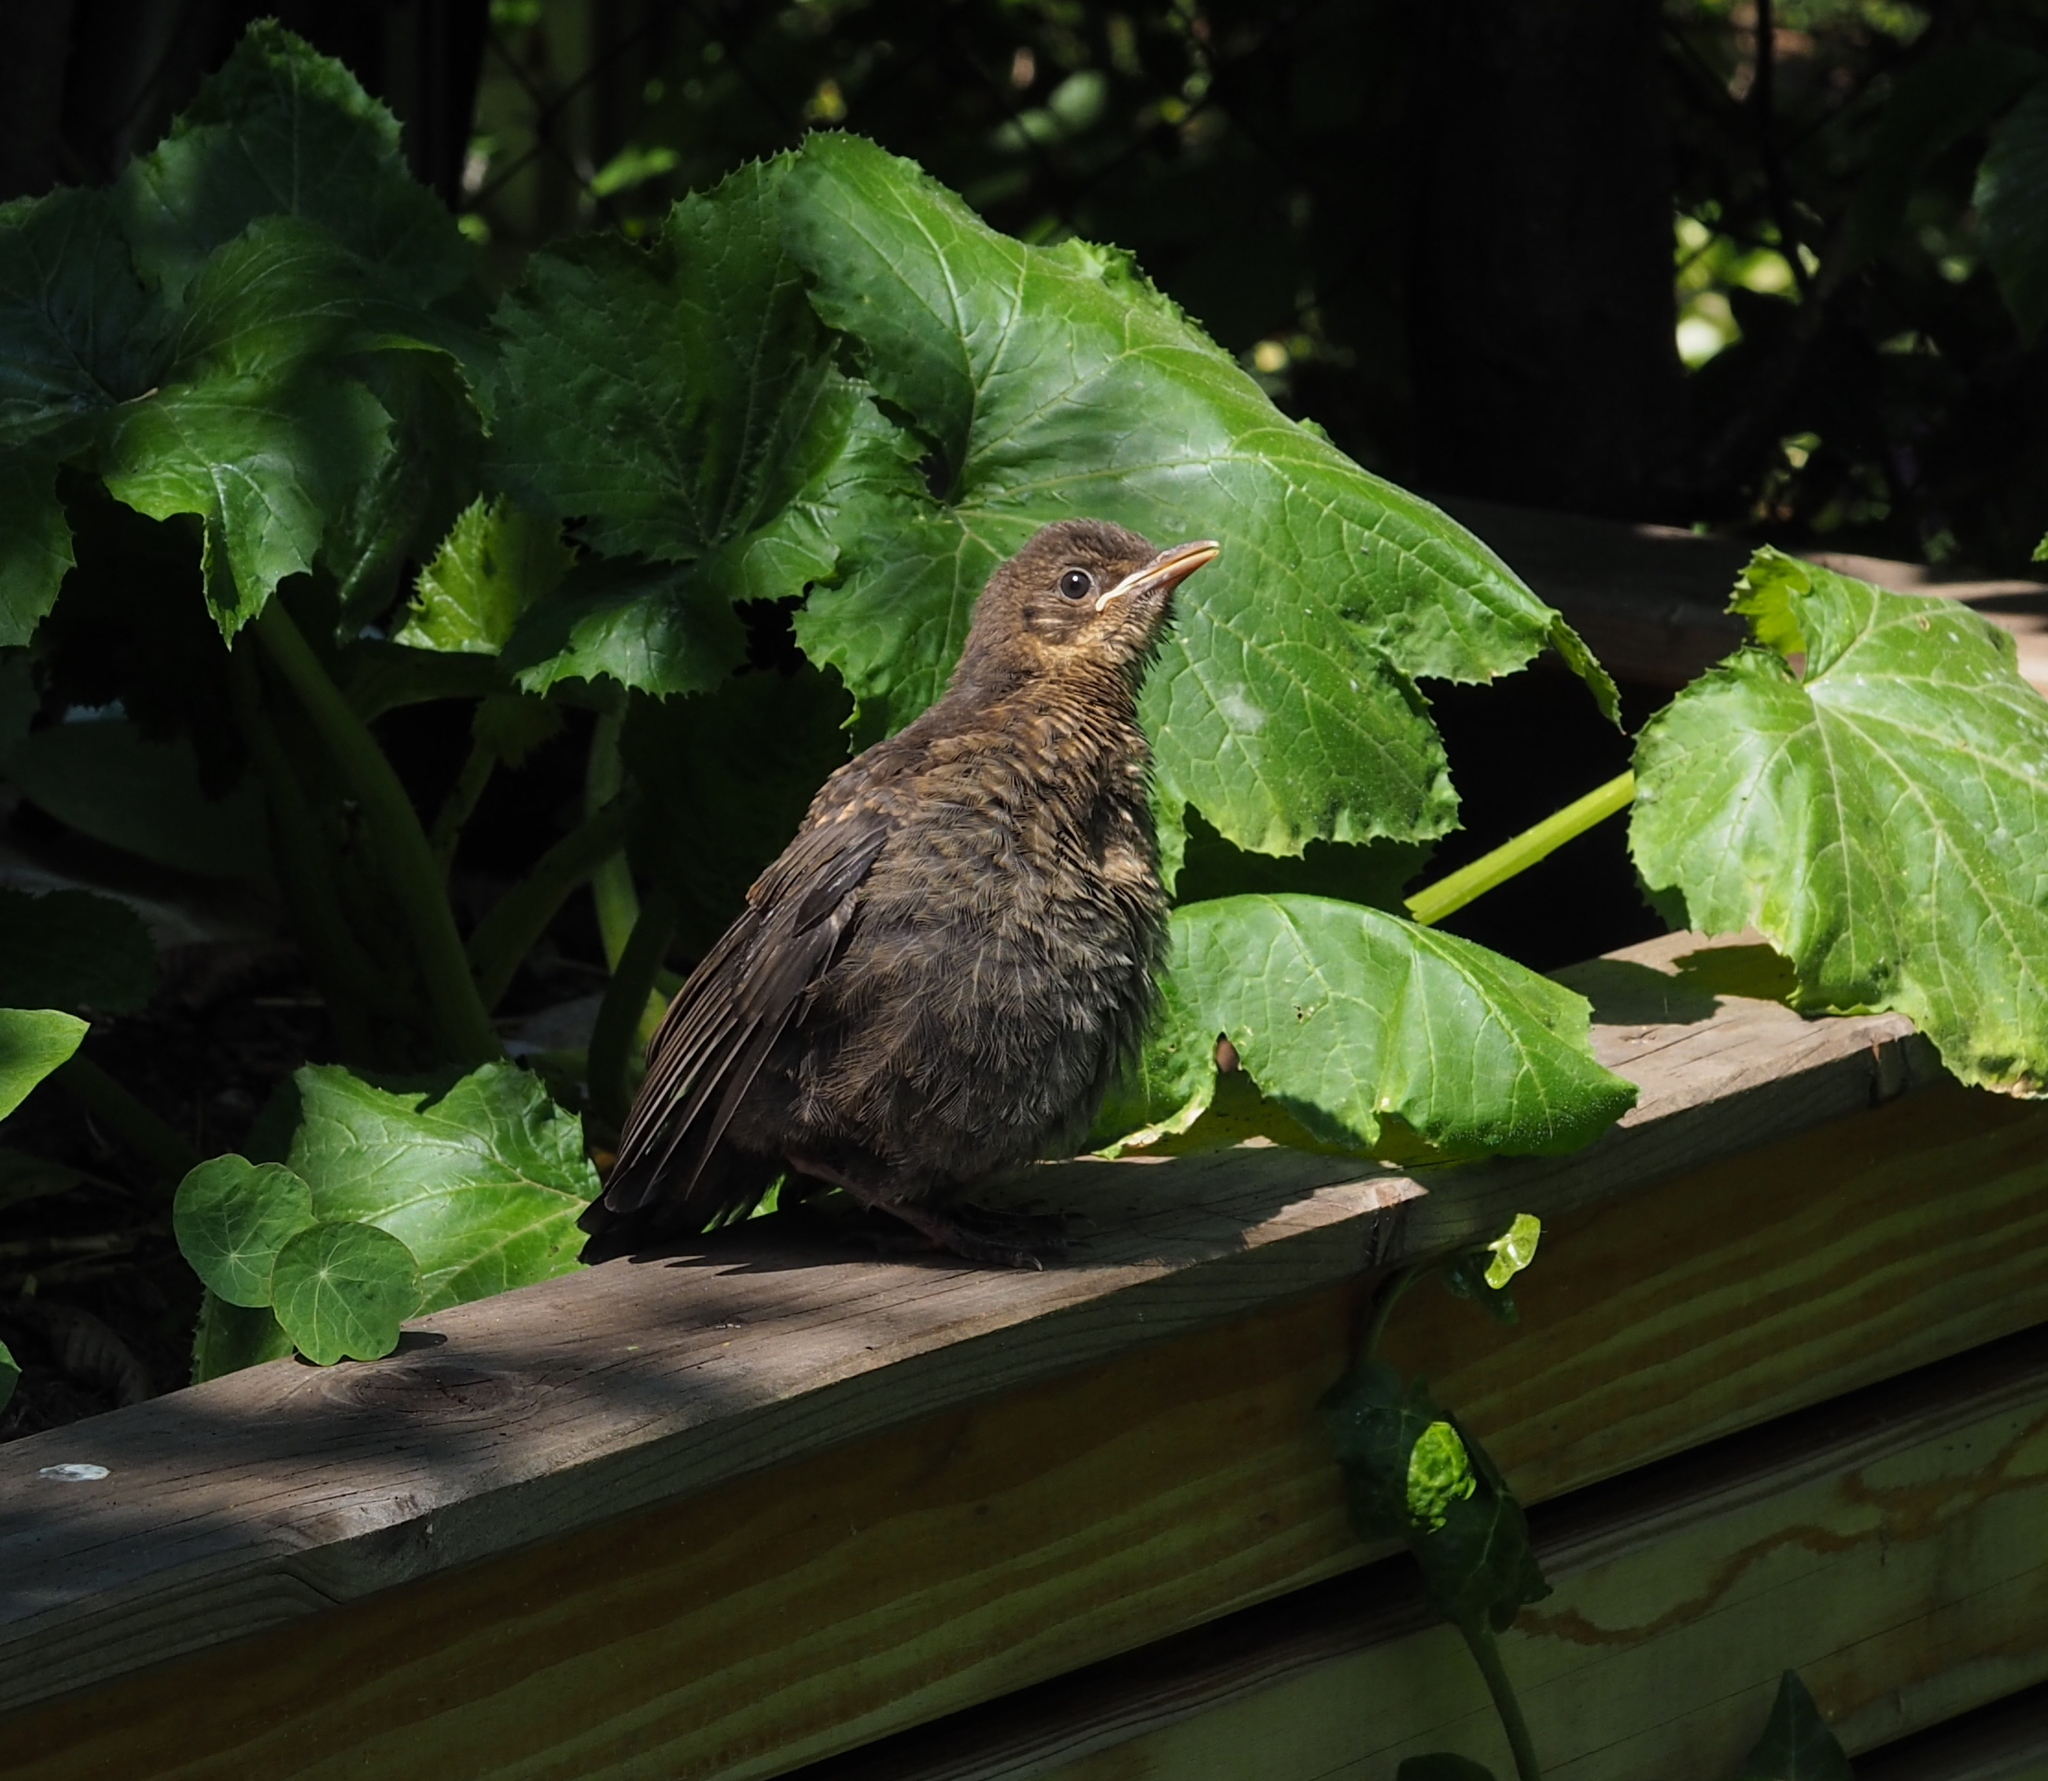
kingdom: Animalia
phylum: Chordata
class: Aves
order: Passeriformes
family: Turdidae
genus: Turdus
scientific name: Turdus merula
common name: Common blackbird
